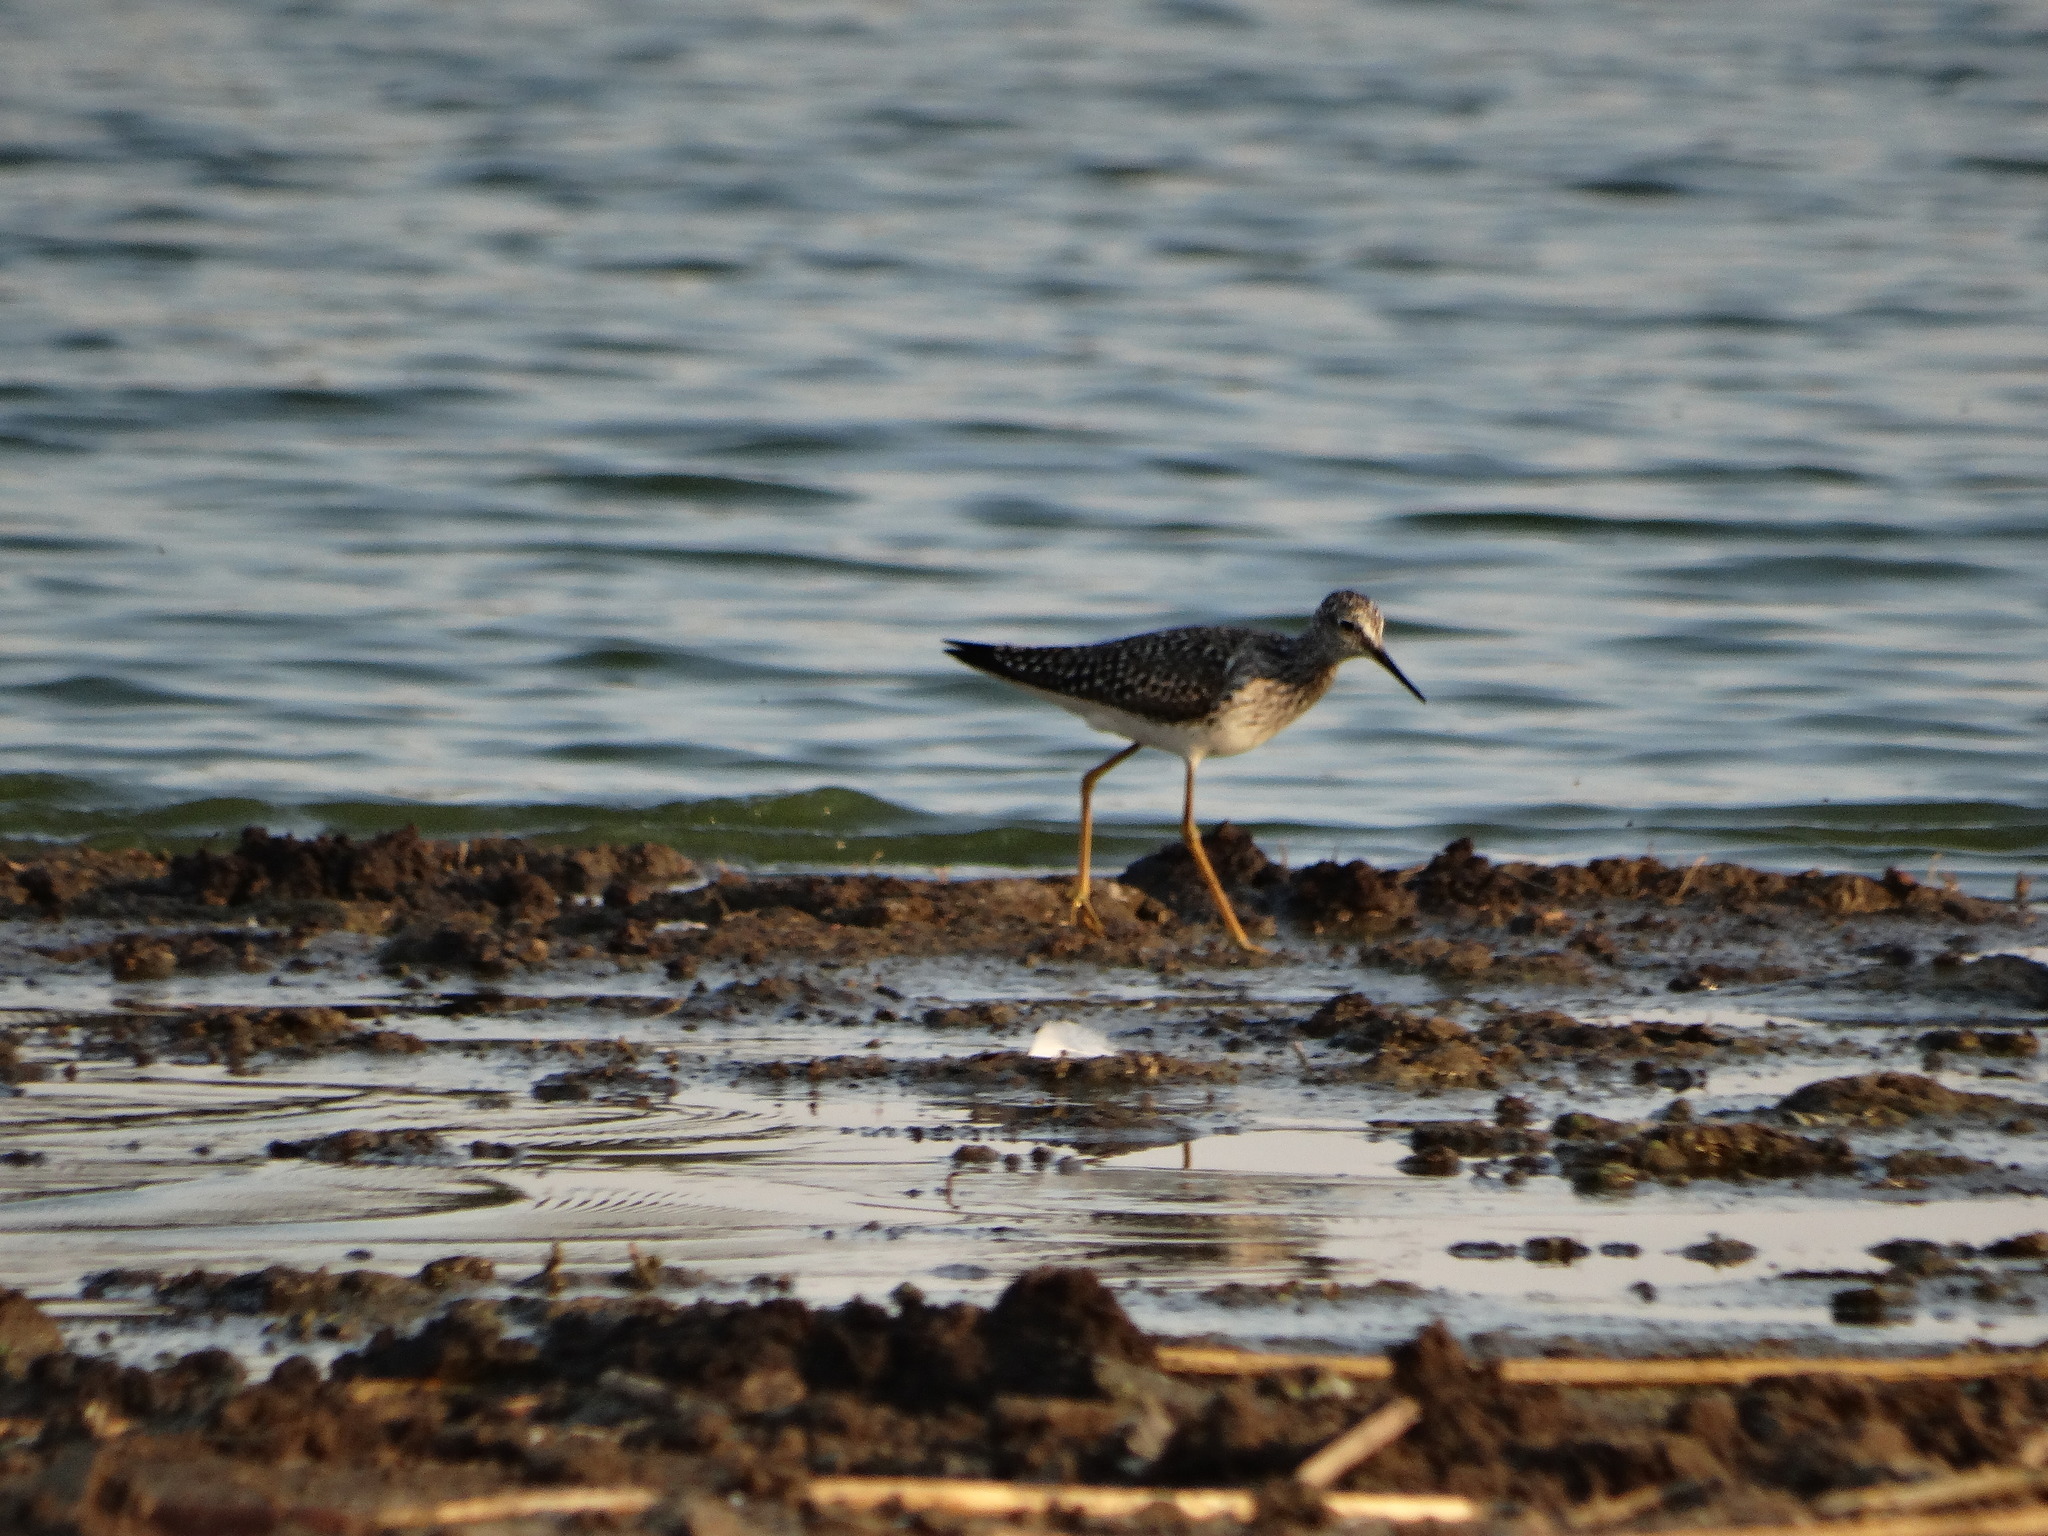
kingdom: Animalia
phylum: Chordata
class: Aves
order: Charadriiformes
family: Scolopacidae
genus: Tringa
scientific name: Tringa melanoleuca
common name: Greater yellowlegs
